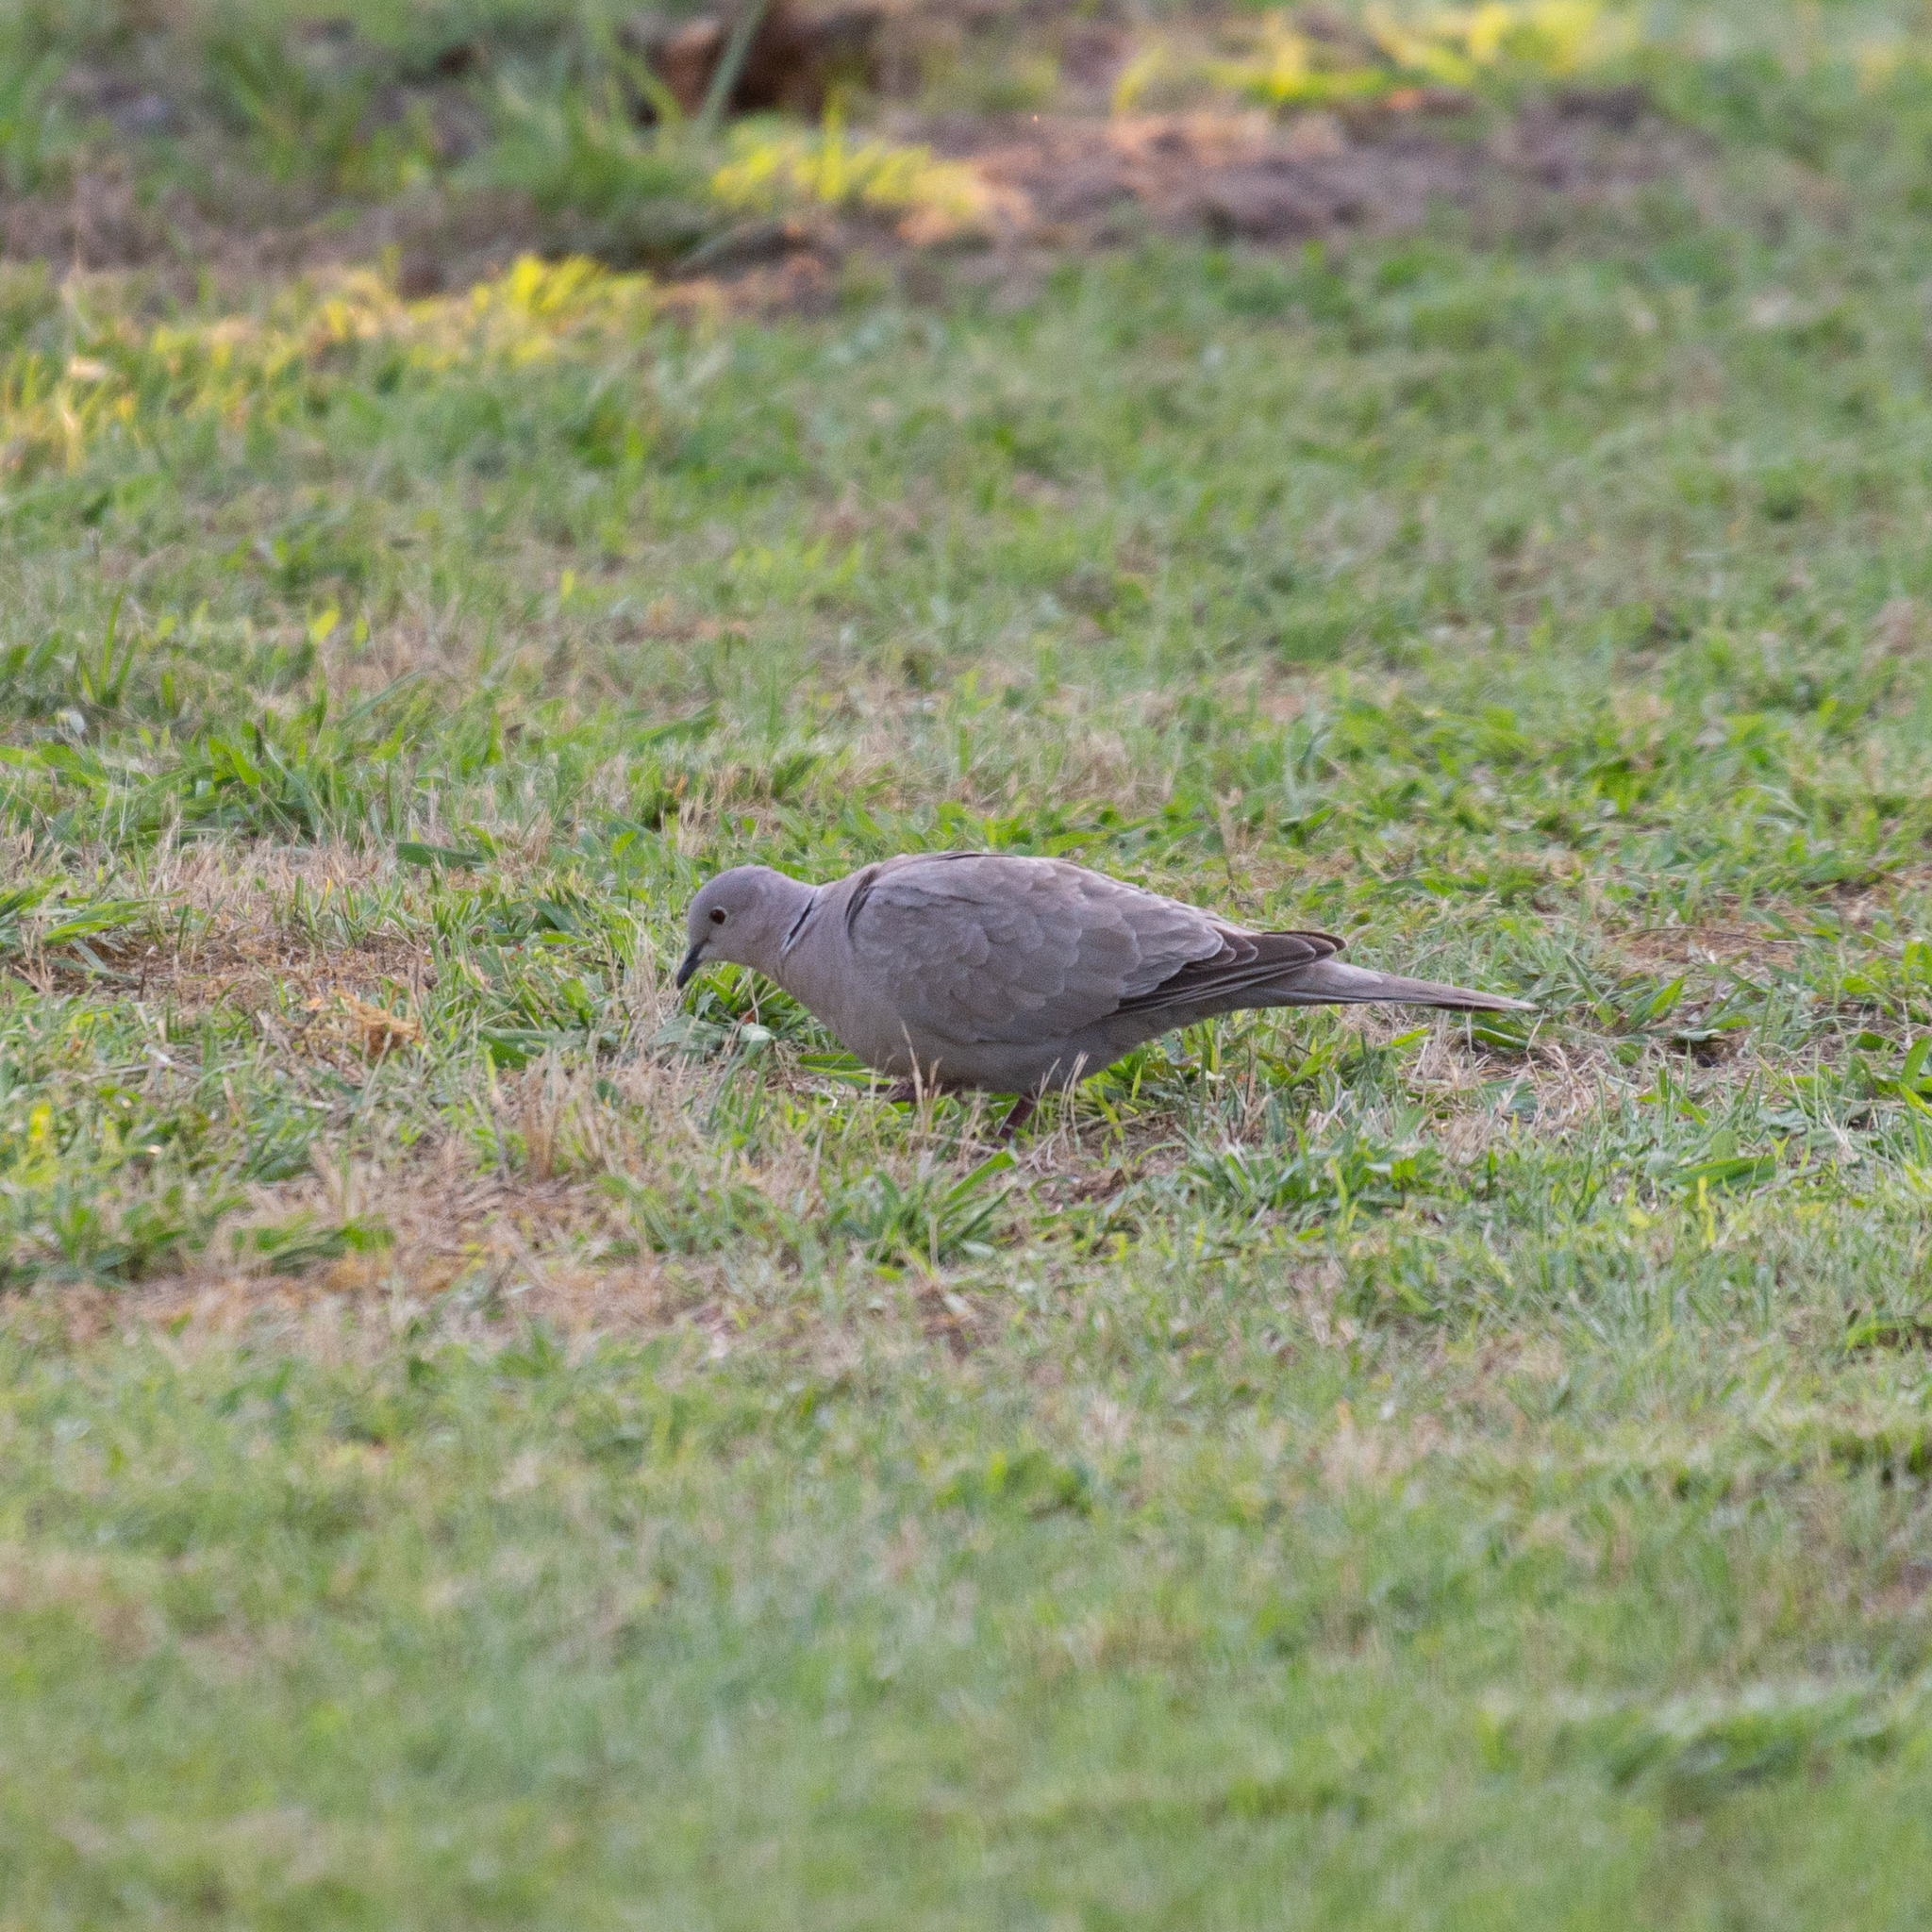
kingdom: Animalia
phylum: Chordata
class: Aves
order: Columbiformes
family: Columbidae
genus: Streptopelia
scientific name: Streptopelia decaocto
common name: Eurasian collared dove
